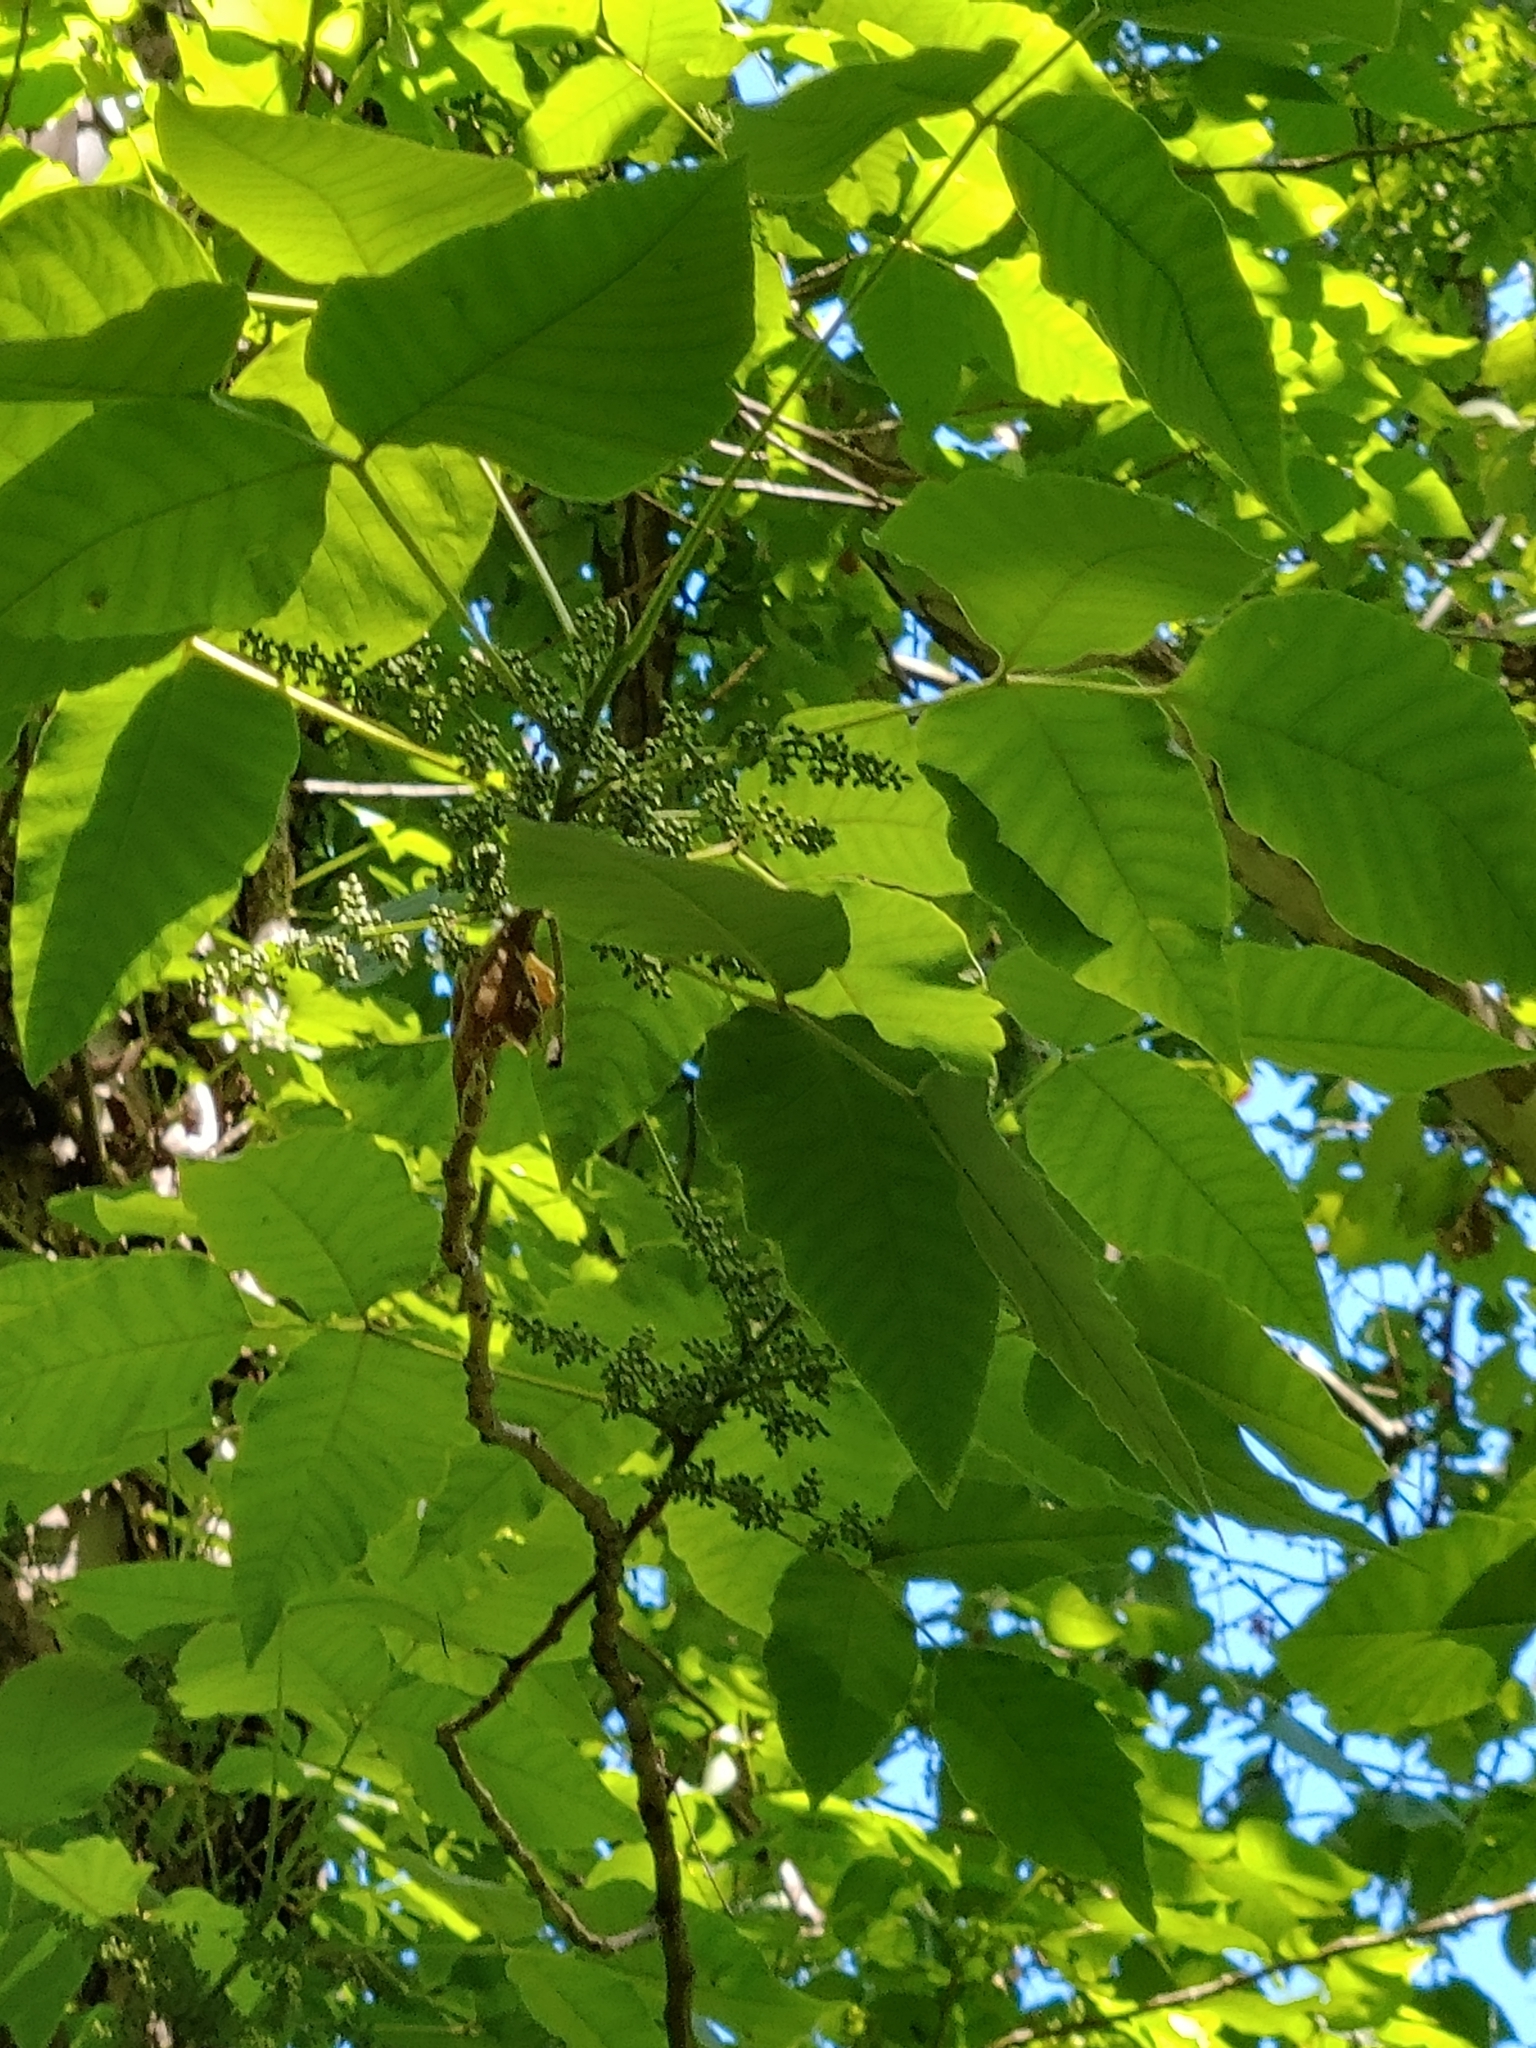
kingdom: Plantae
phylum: Tracheophyta
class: Magnoliopsida
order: Sapindales
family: Anacardiaceae
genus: Toxicodendron
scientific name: Toxicodendron radicans
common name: Poison ivy
